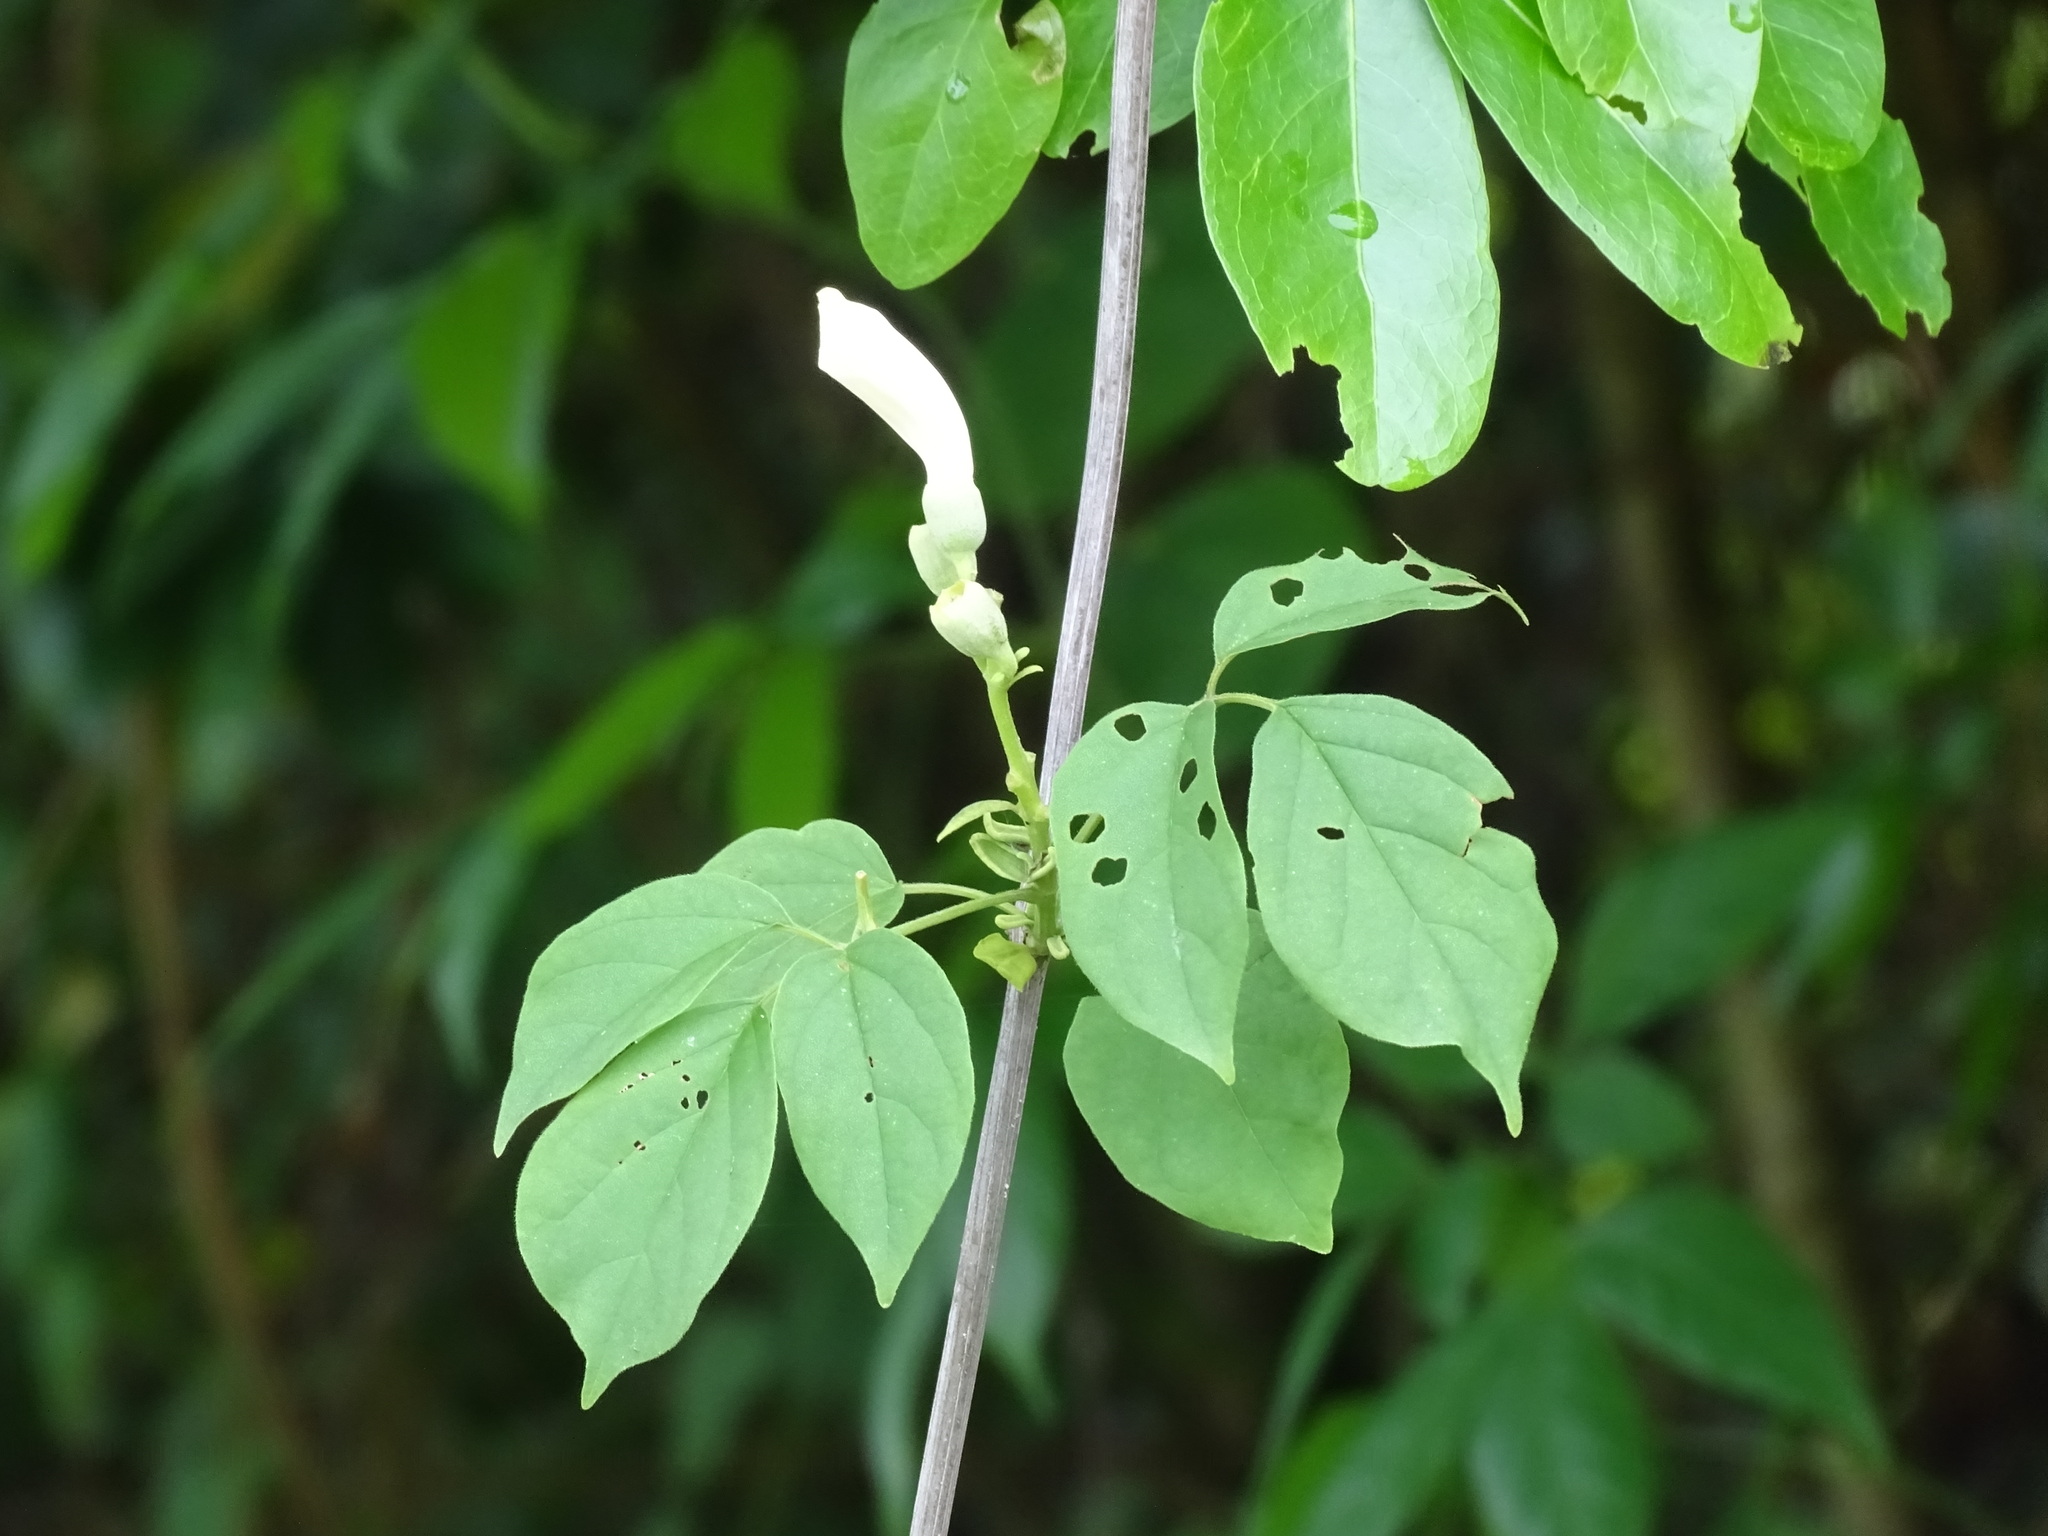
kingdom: Plantae
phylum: Tracheophyta
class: Magnoliopsida
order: Lamiales
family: Bignoniaceae
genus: Amphilophium
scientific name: Amphilophium crucigerum
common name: Monkey comb
